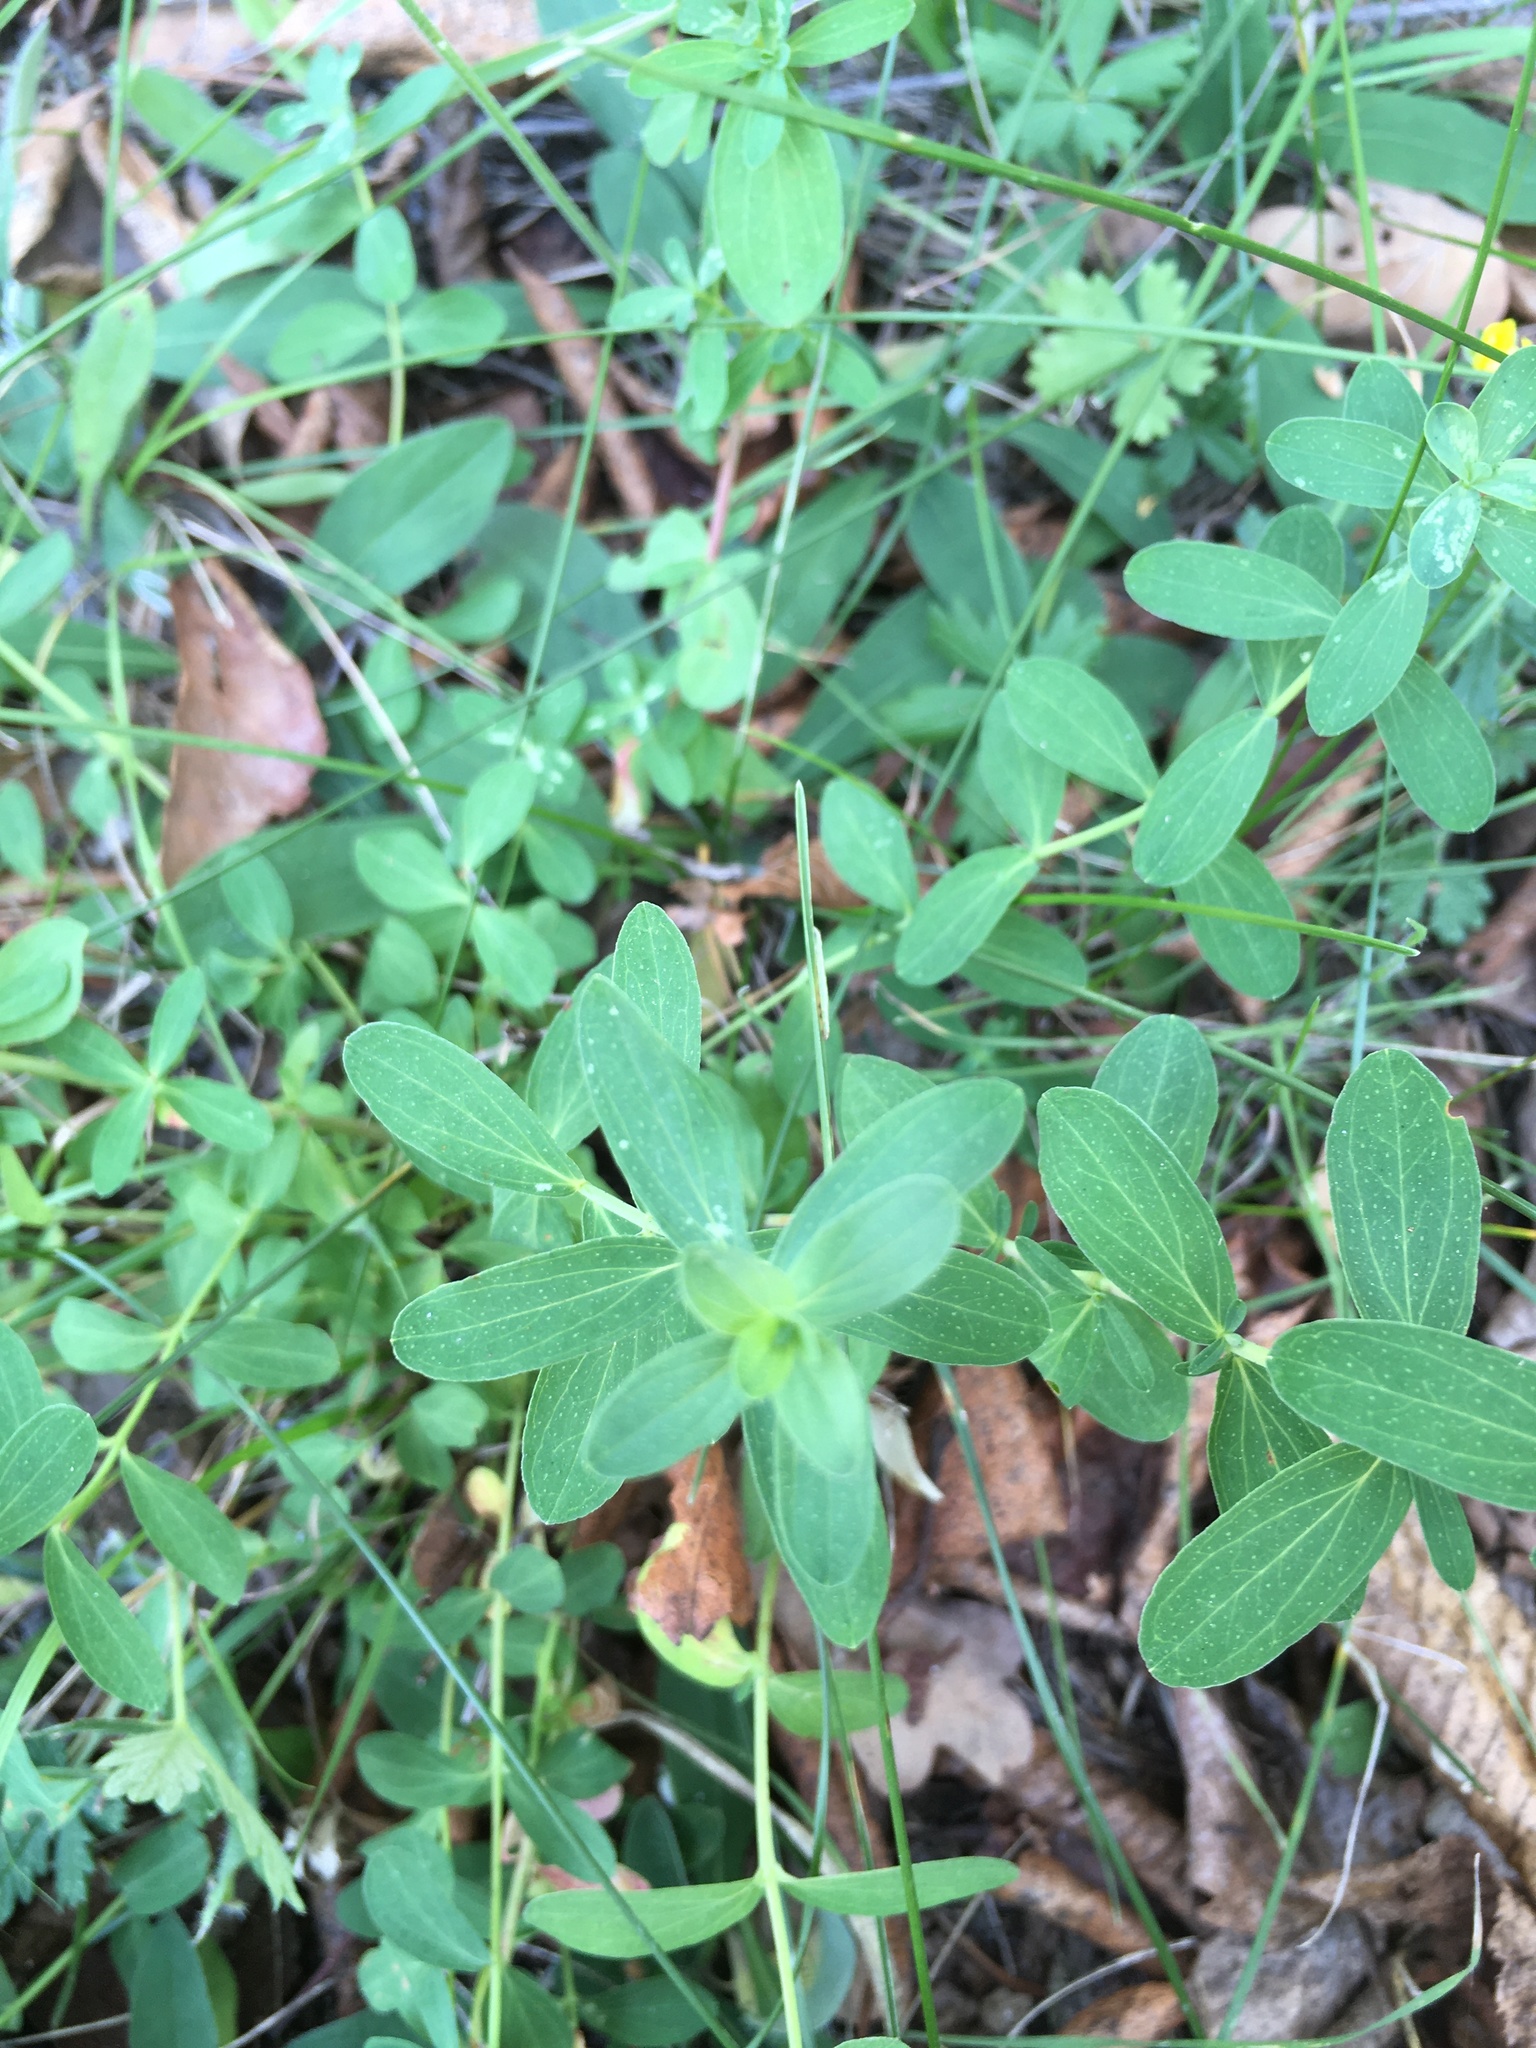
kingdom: Plantae
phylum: Tracheophyta
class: Magnoliopsida
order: Malpighiales
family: Hypericaceae
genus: Hypericum
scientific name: Hypericum perforatum
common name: Common st. johnswort
